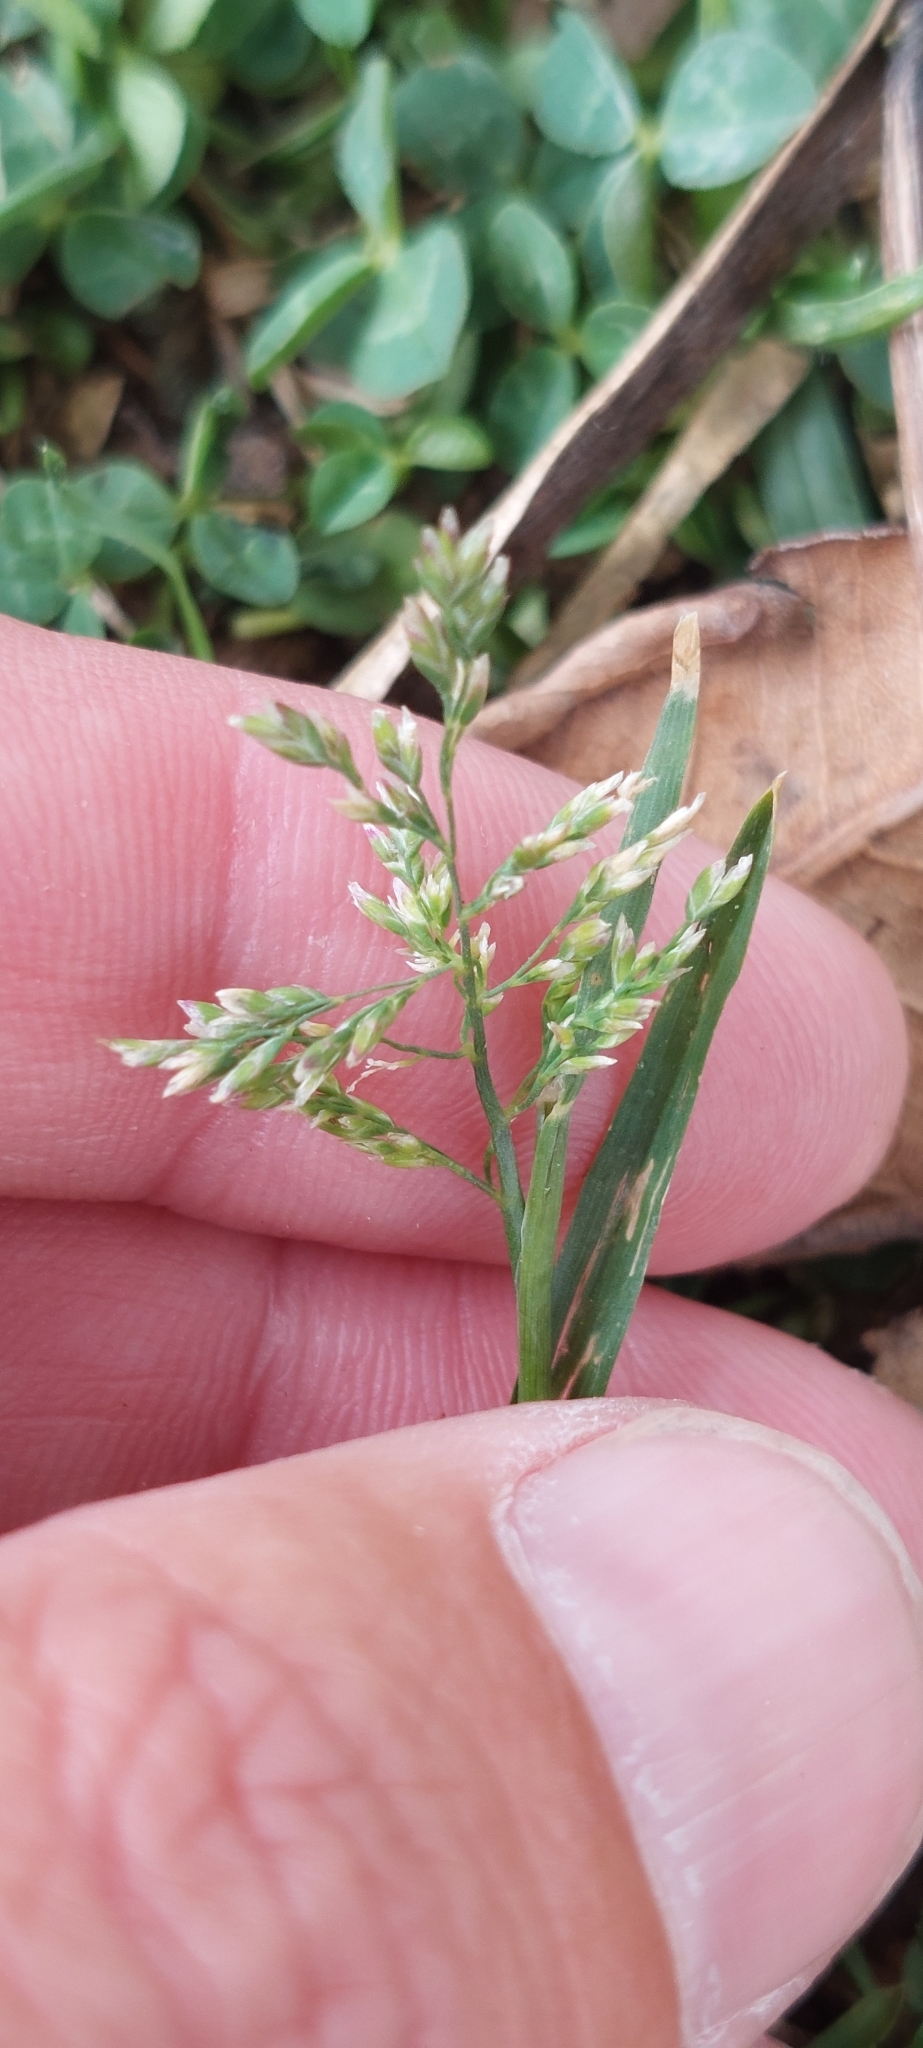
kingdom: Plantae
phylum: Tracheophyta
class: Liliopsida
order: Poales
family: Poaceae
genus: Poa
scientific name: Poa annua
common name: Annual bluegrass
